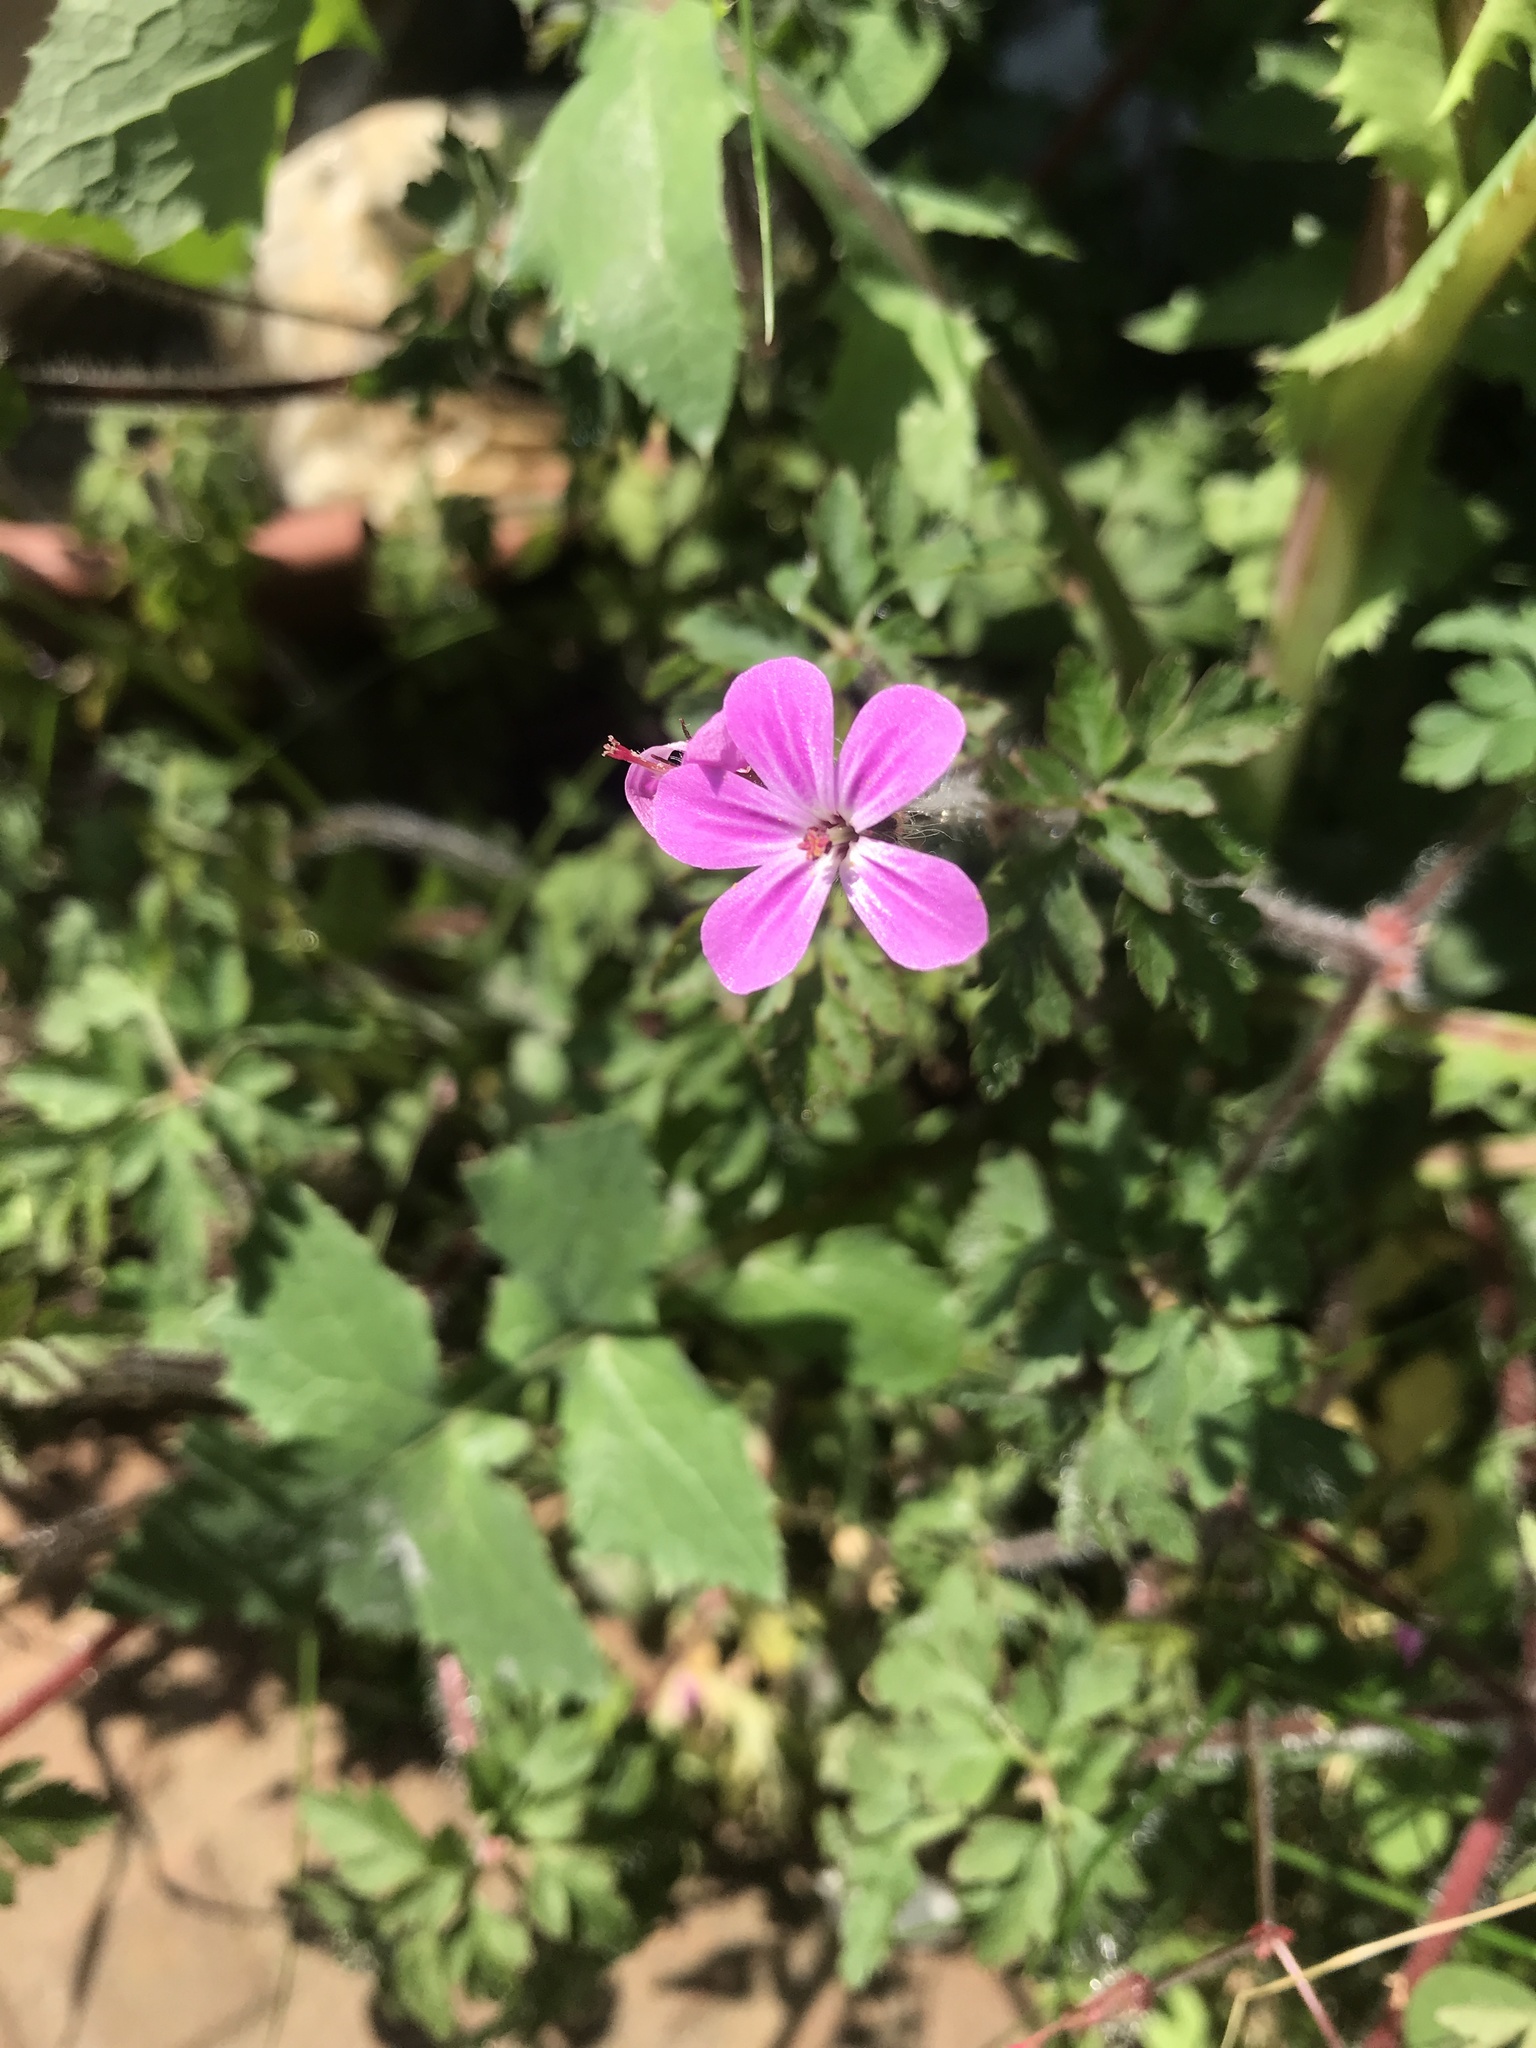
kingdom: Plantae
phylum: Tracheophyta
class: Magnoliopsida
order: Geraniales
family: Geraniaceae
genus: Geranium
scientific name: Geranium robertianum
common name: Herb-robert
